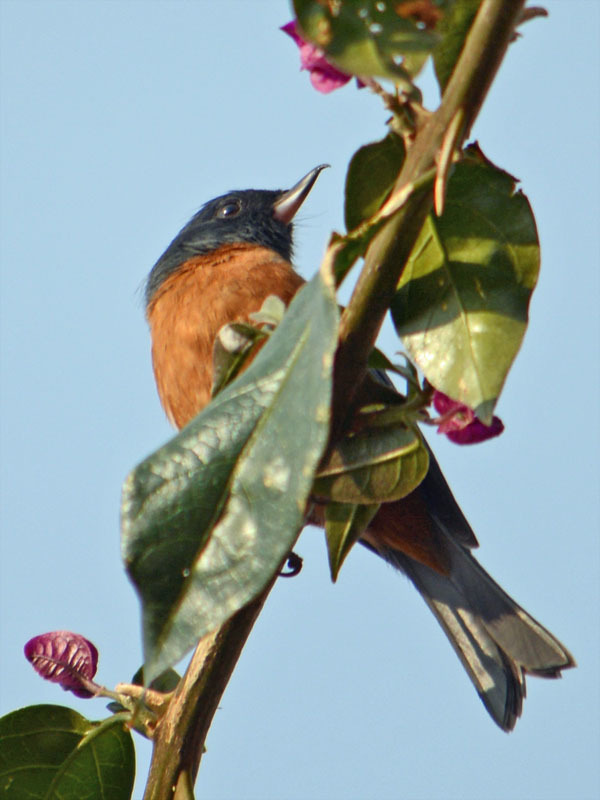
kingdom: Animalia
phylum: Chordata
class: Aves
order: Passeriformes
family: Thraupidae
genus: Diglossa
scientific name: Diglossa baritula
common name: Cinnamon-bellied flowerpiercer
